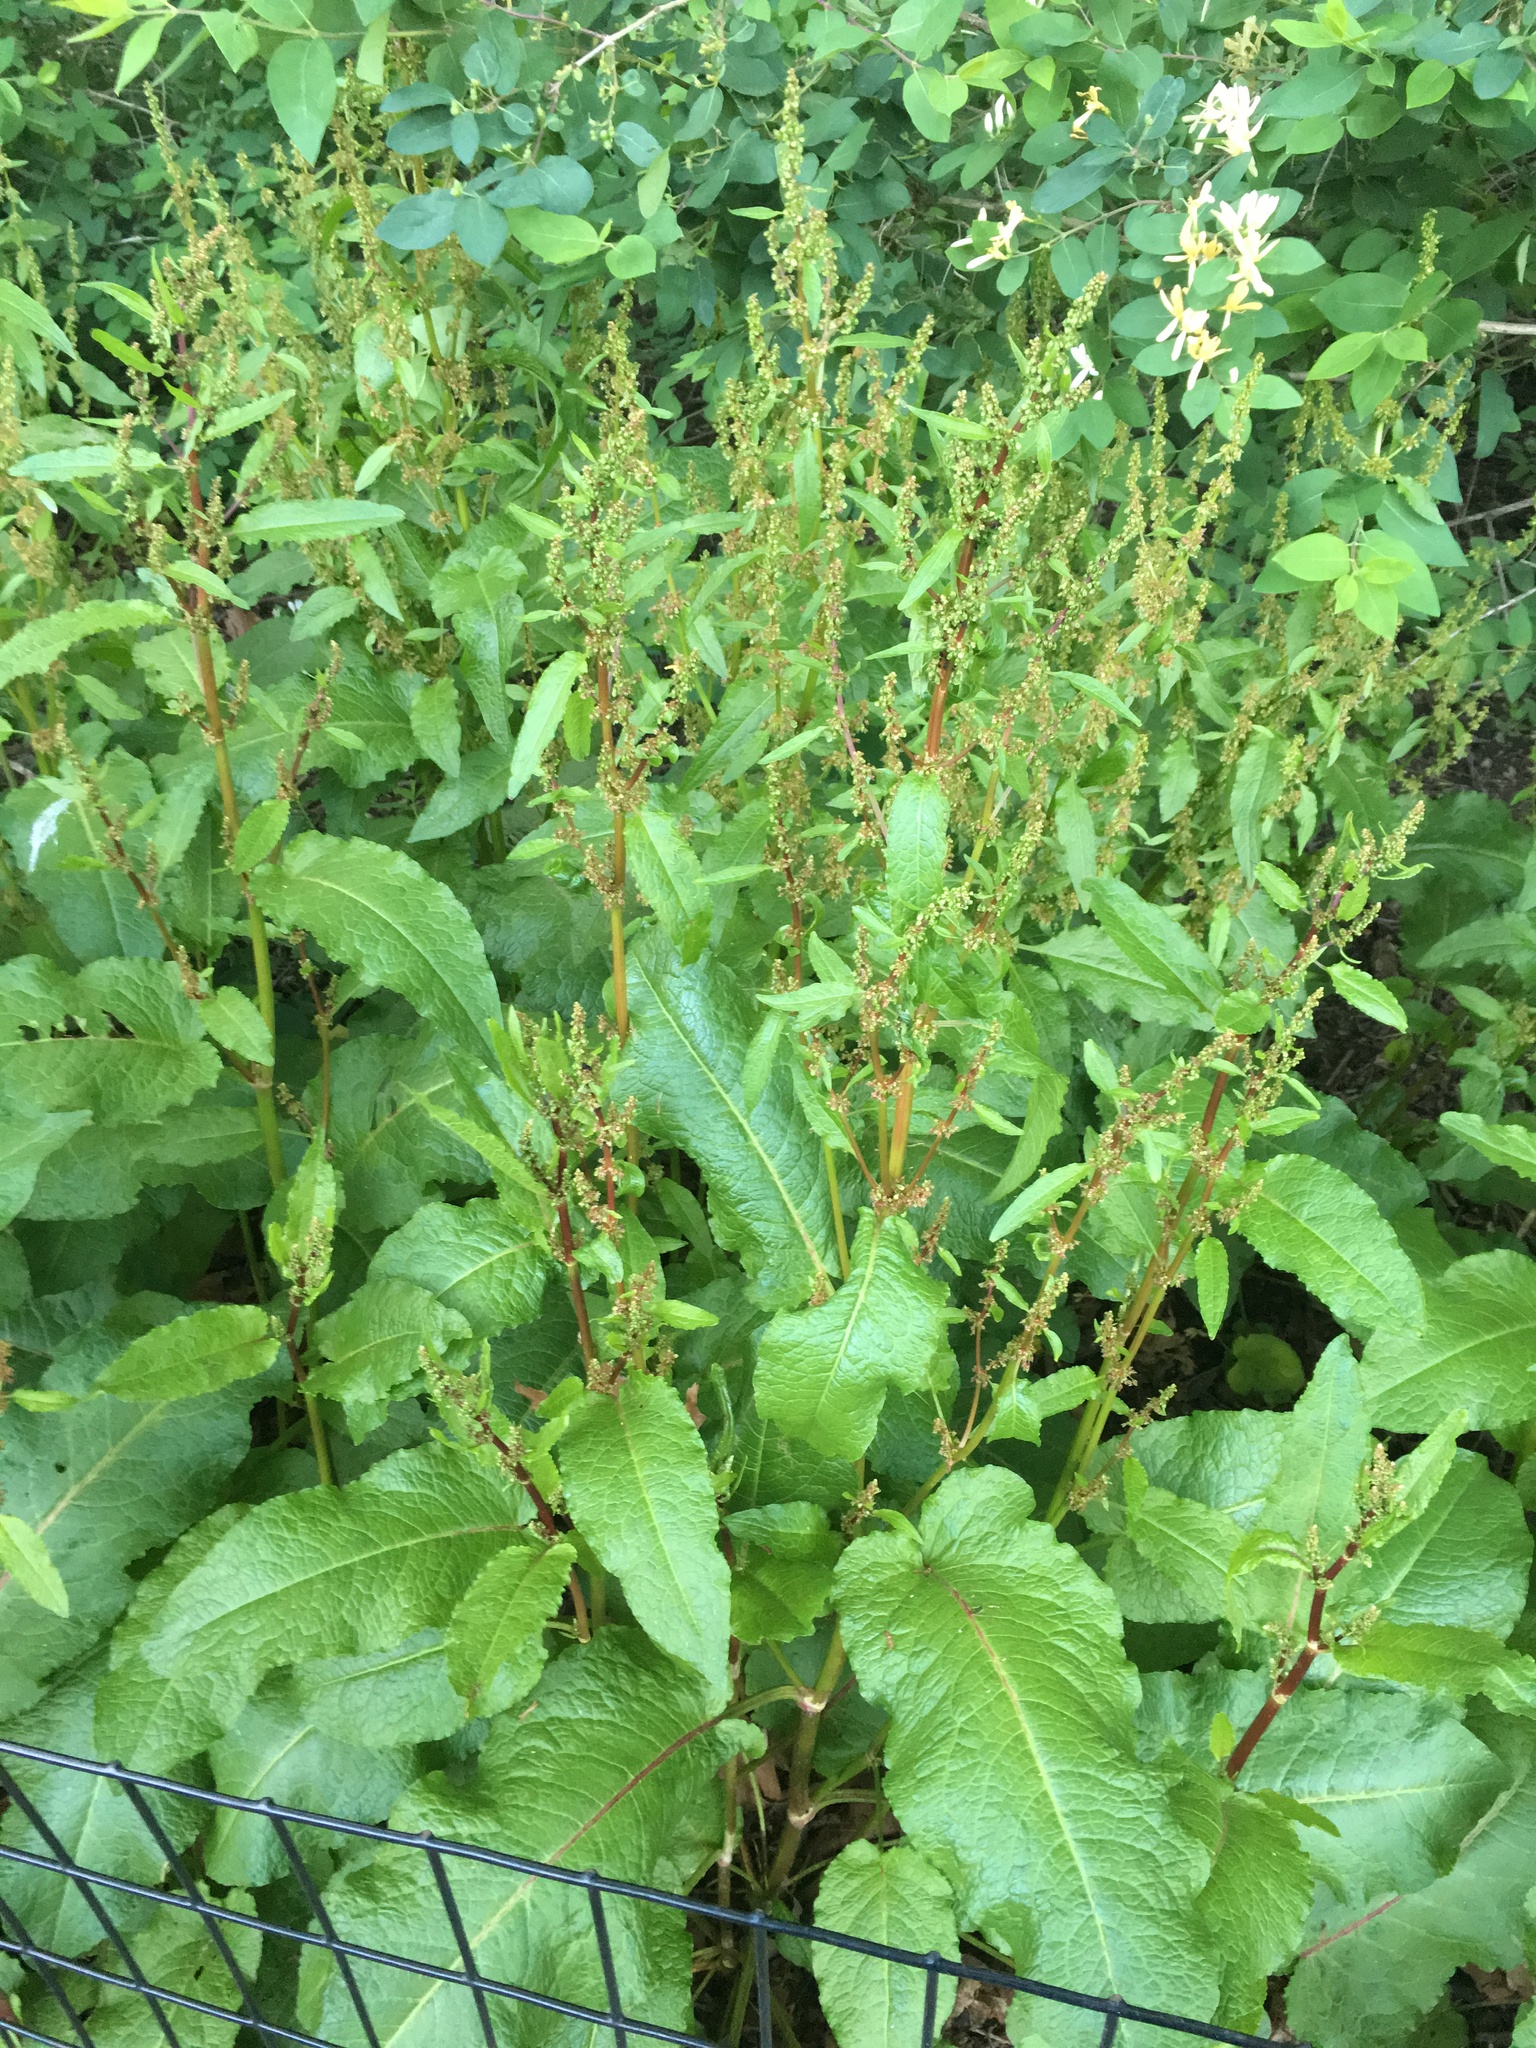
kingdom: Plantae
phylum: Tracheophyta
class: Magnoliopsida
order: Caryophyllales
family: Polygonaceae
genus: Rumex
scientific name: Rumex obtusifolius
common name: Bitter dock
